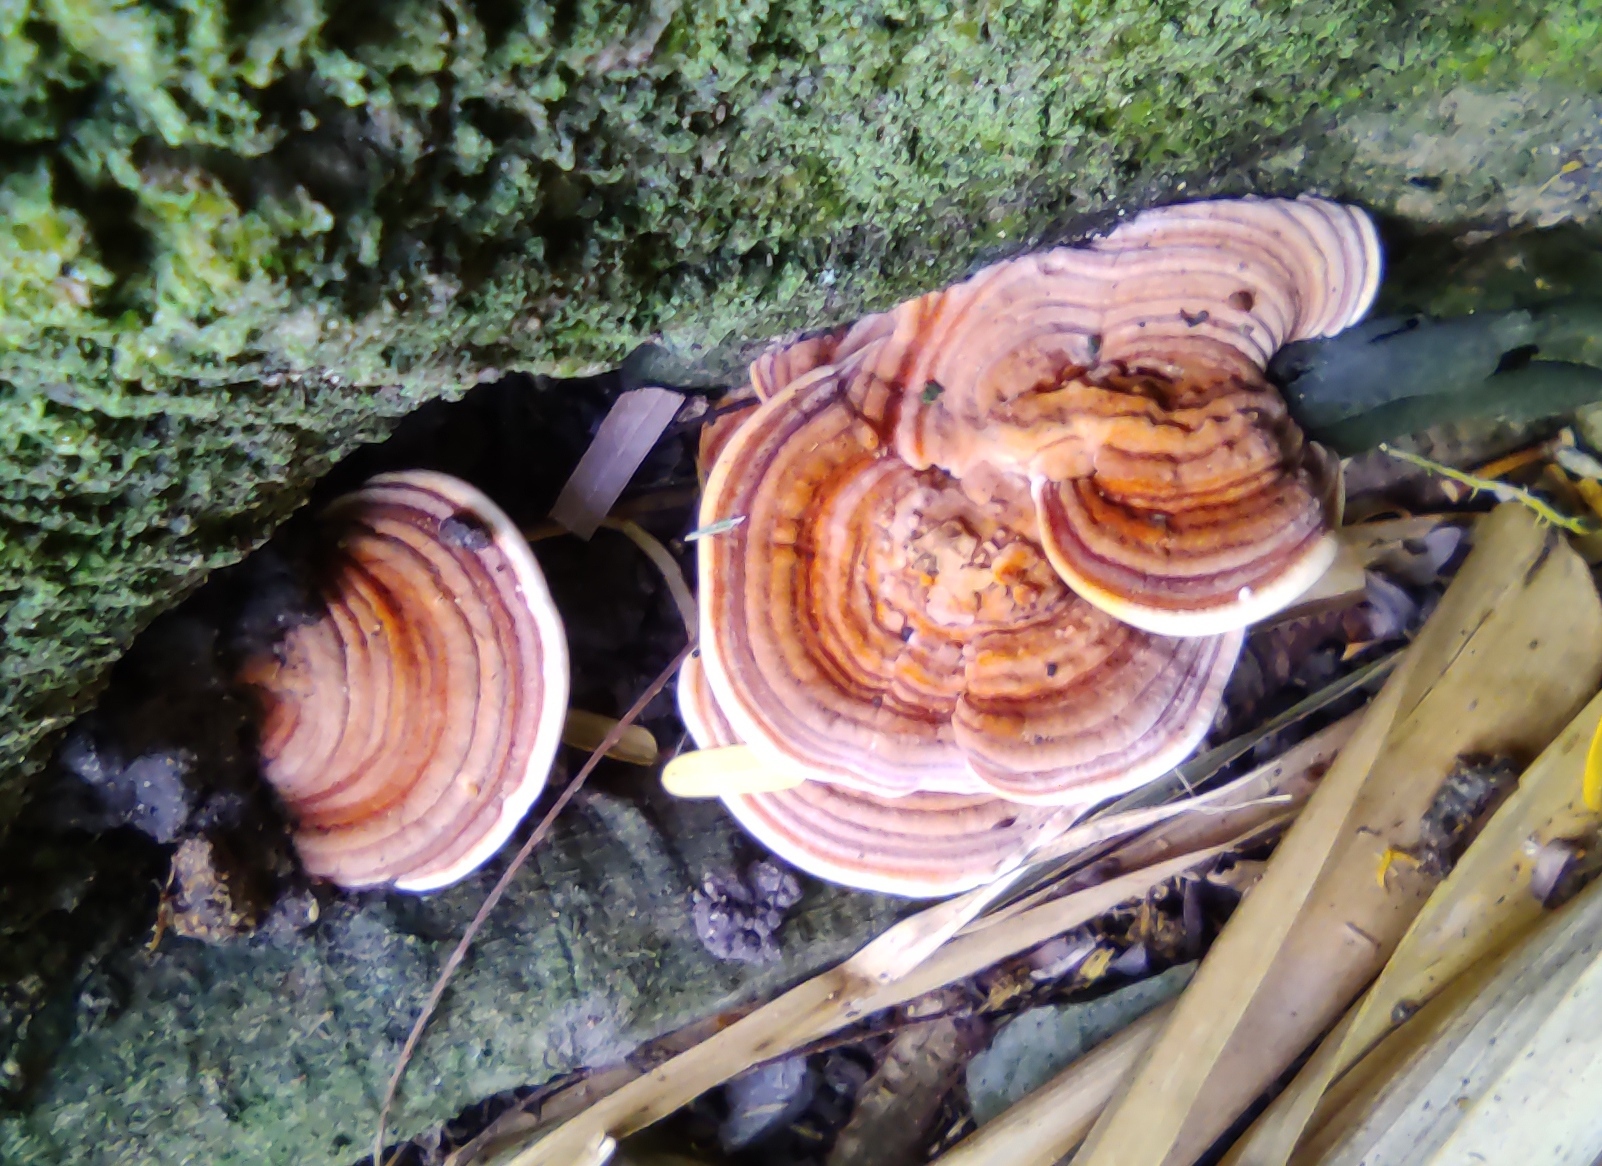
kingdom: Fungi
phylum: Basidiomycota
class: Agaricomycetes
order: Polyporales
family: Meripilaceae
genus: Rigidoporus
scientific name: Rigidoporus lineatus
